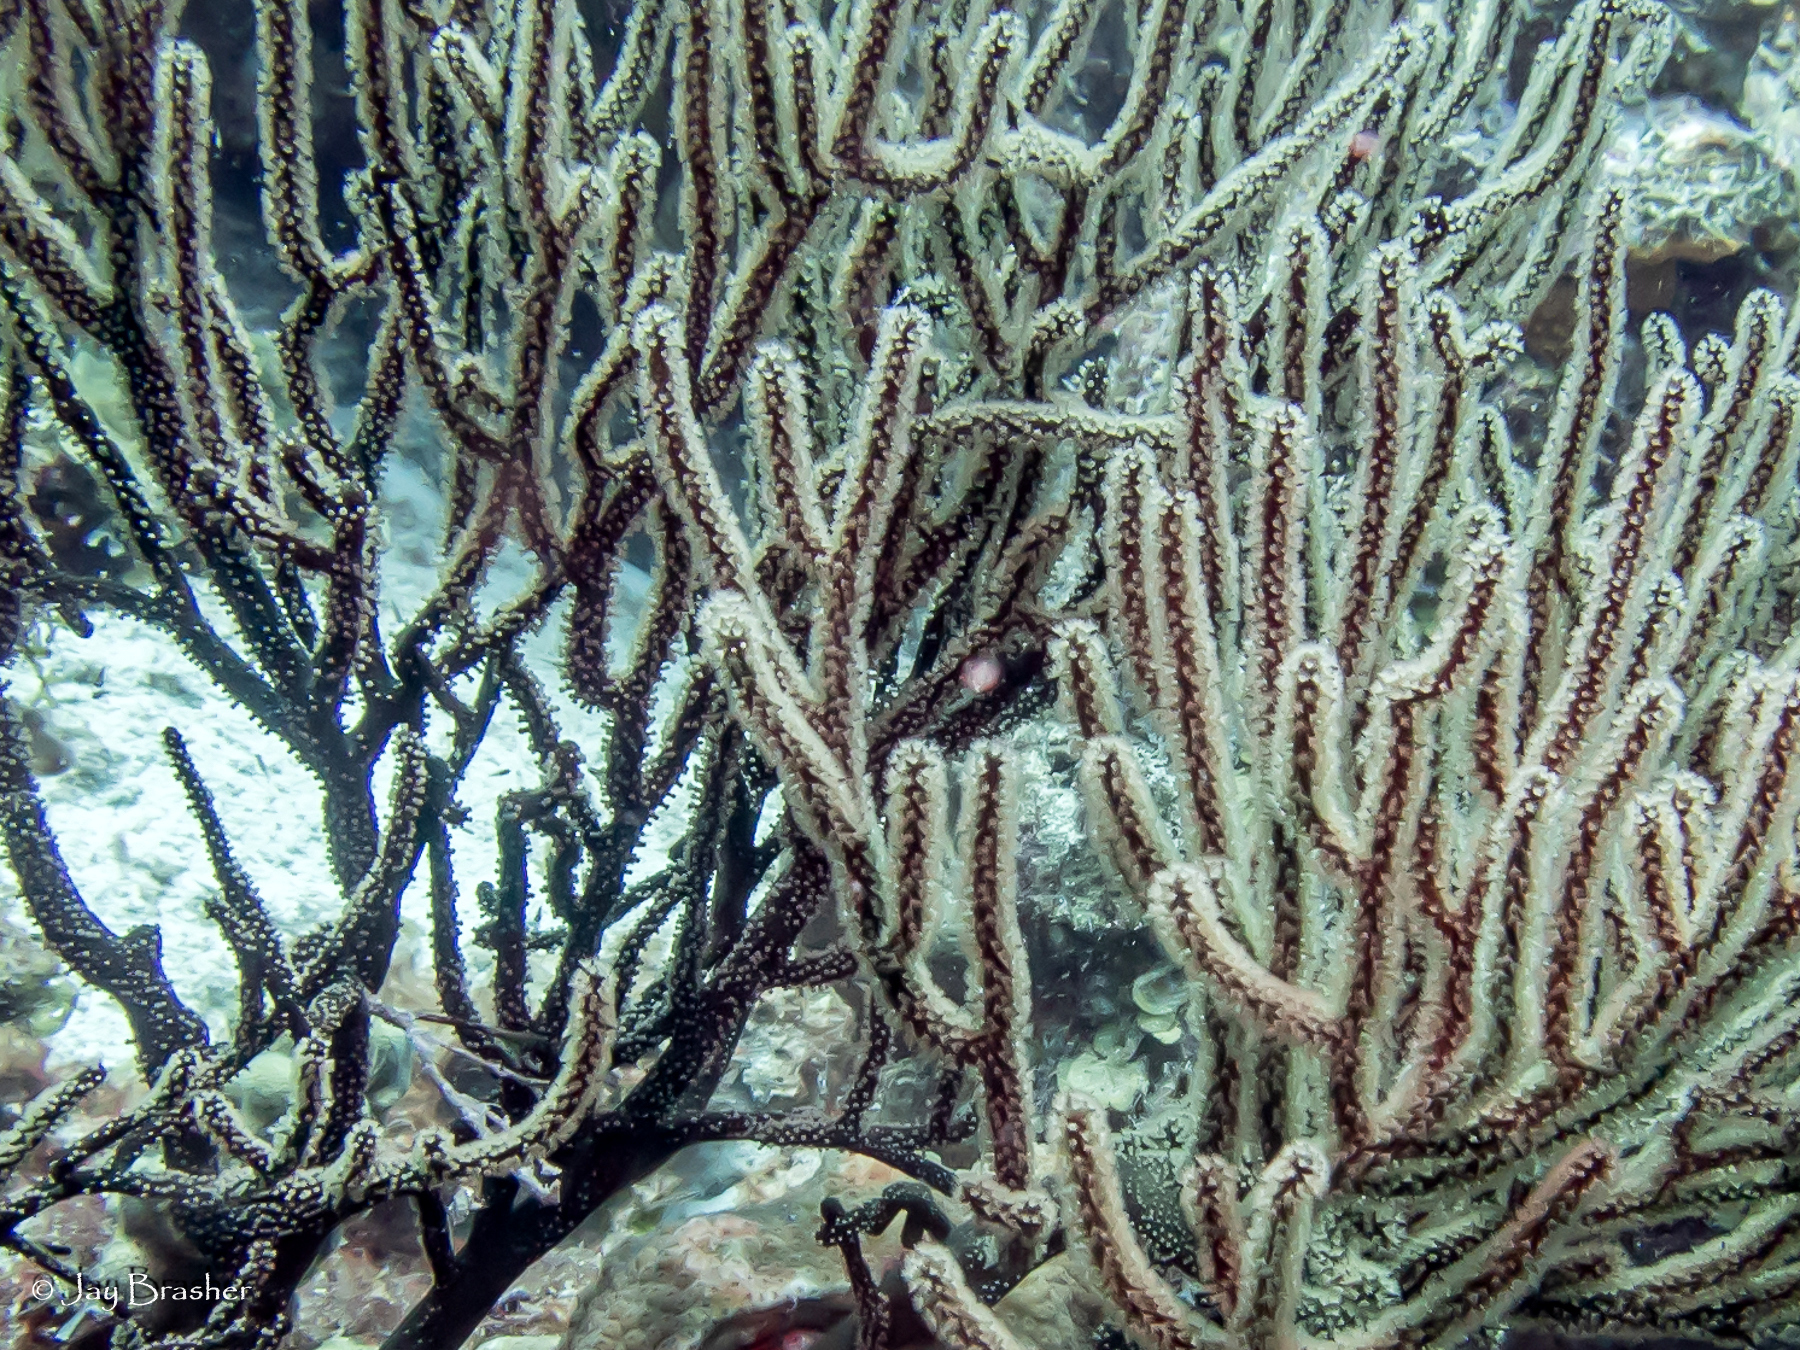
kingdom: Animalia
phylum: Cnidaria
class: Anthozoa
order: Malacalcyonacea
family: Plexauridae
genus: Plexaura
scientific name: Plexaura homomalla
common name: Black sea rod
